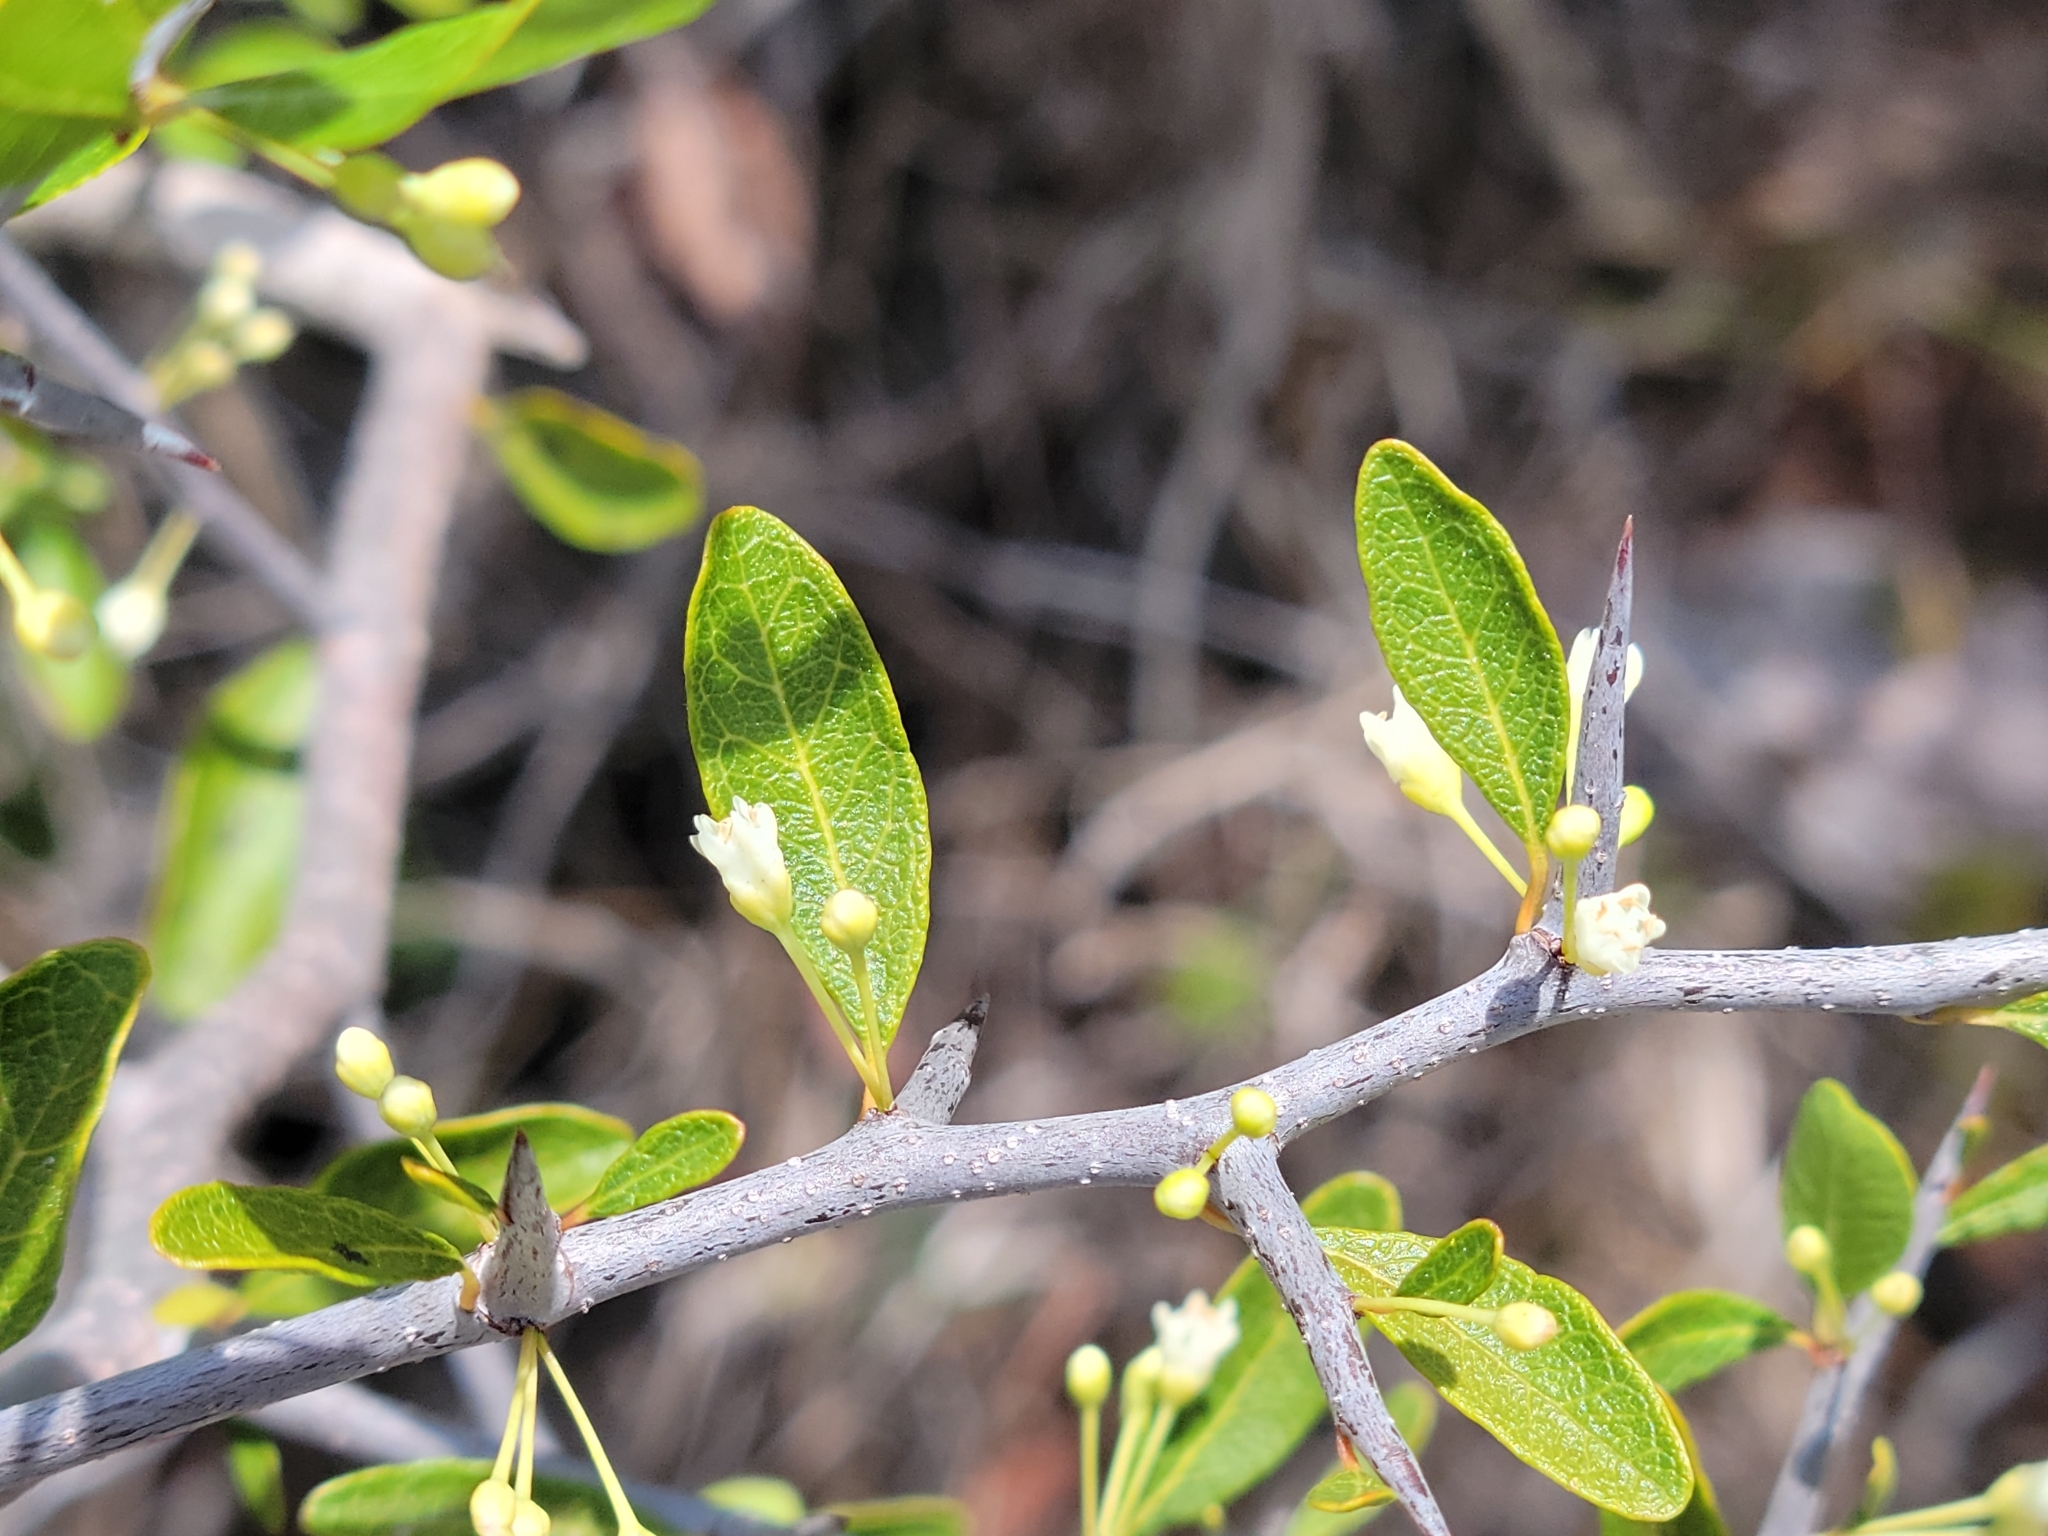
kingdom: Plantae
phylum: Tracheophyta
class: Magnoliopsida
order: Ericales
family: Sapotaceae
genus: Sideroxylon
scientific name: Sideroxylon reclinatum
